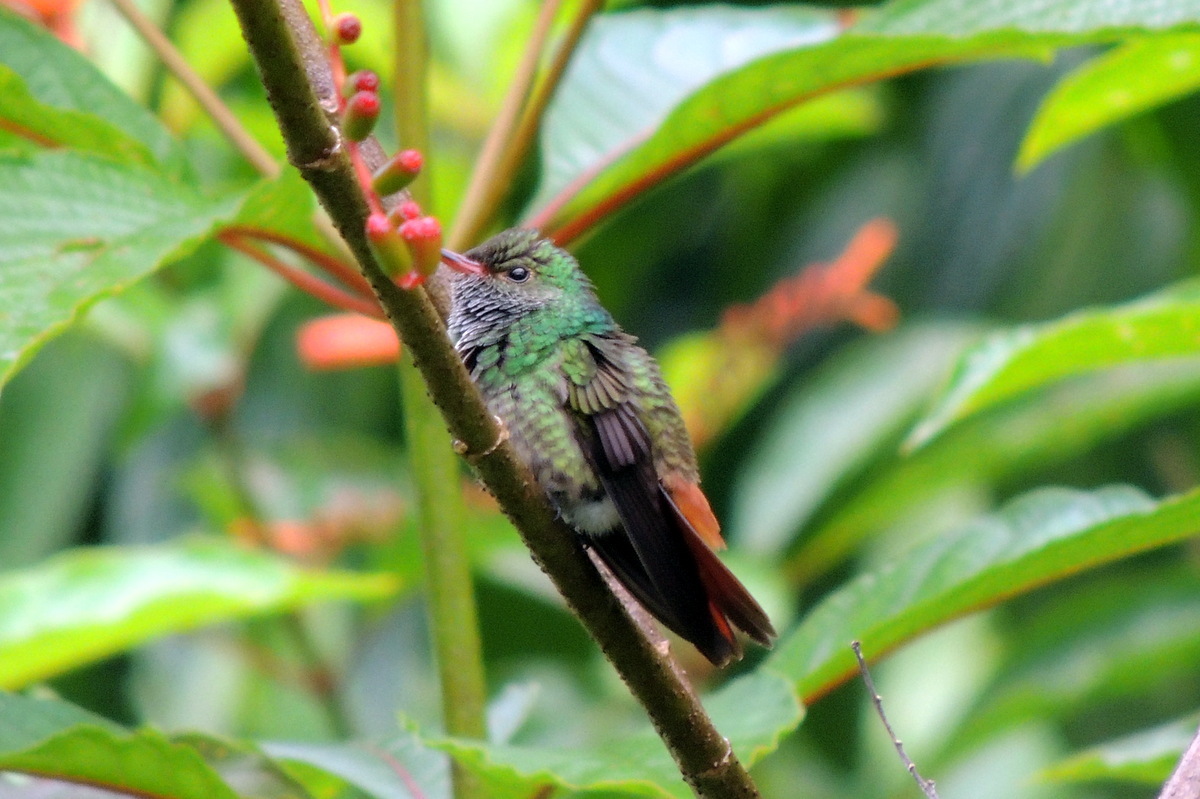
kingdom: Animalia
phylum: Chordata
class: Aves
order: Apodiformes
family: Trochilidae
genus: Amazilia
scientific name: Amazilia tzacatl
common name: Rufous-tailed hummingbird
